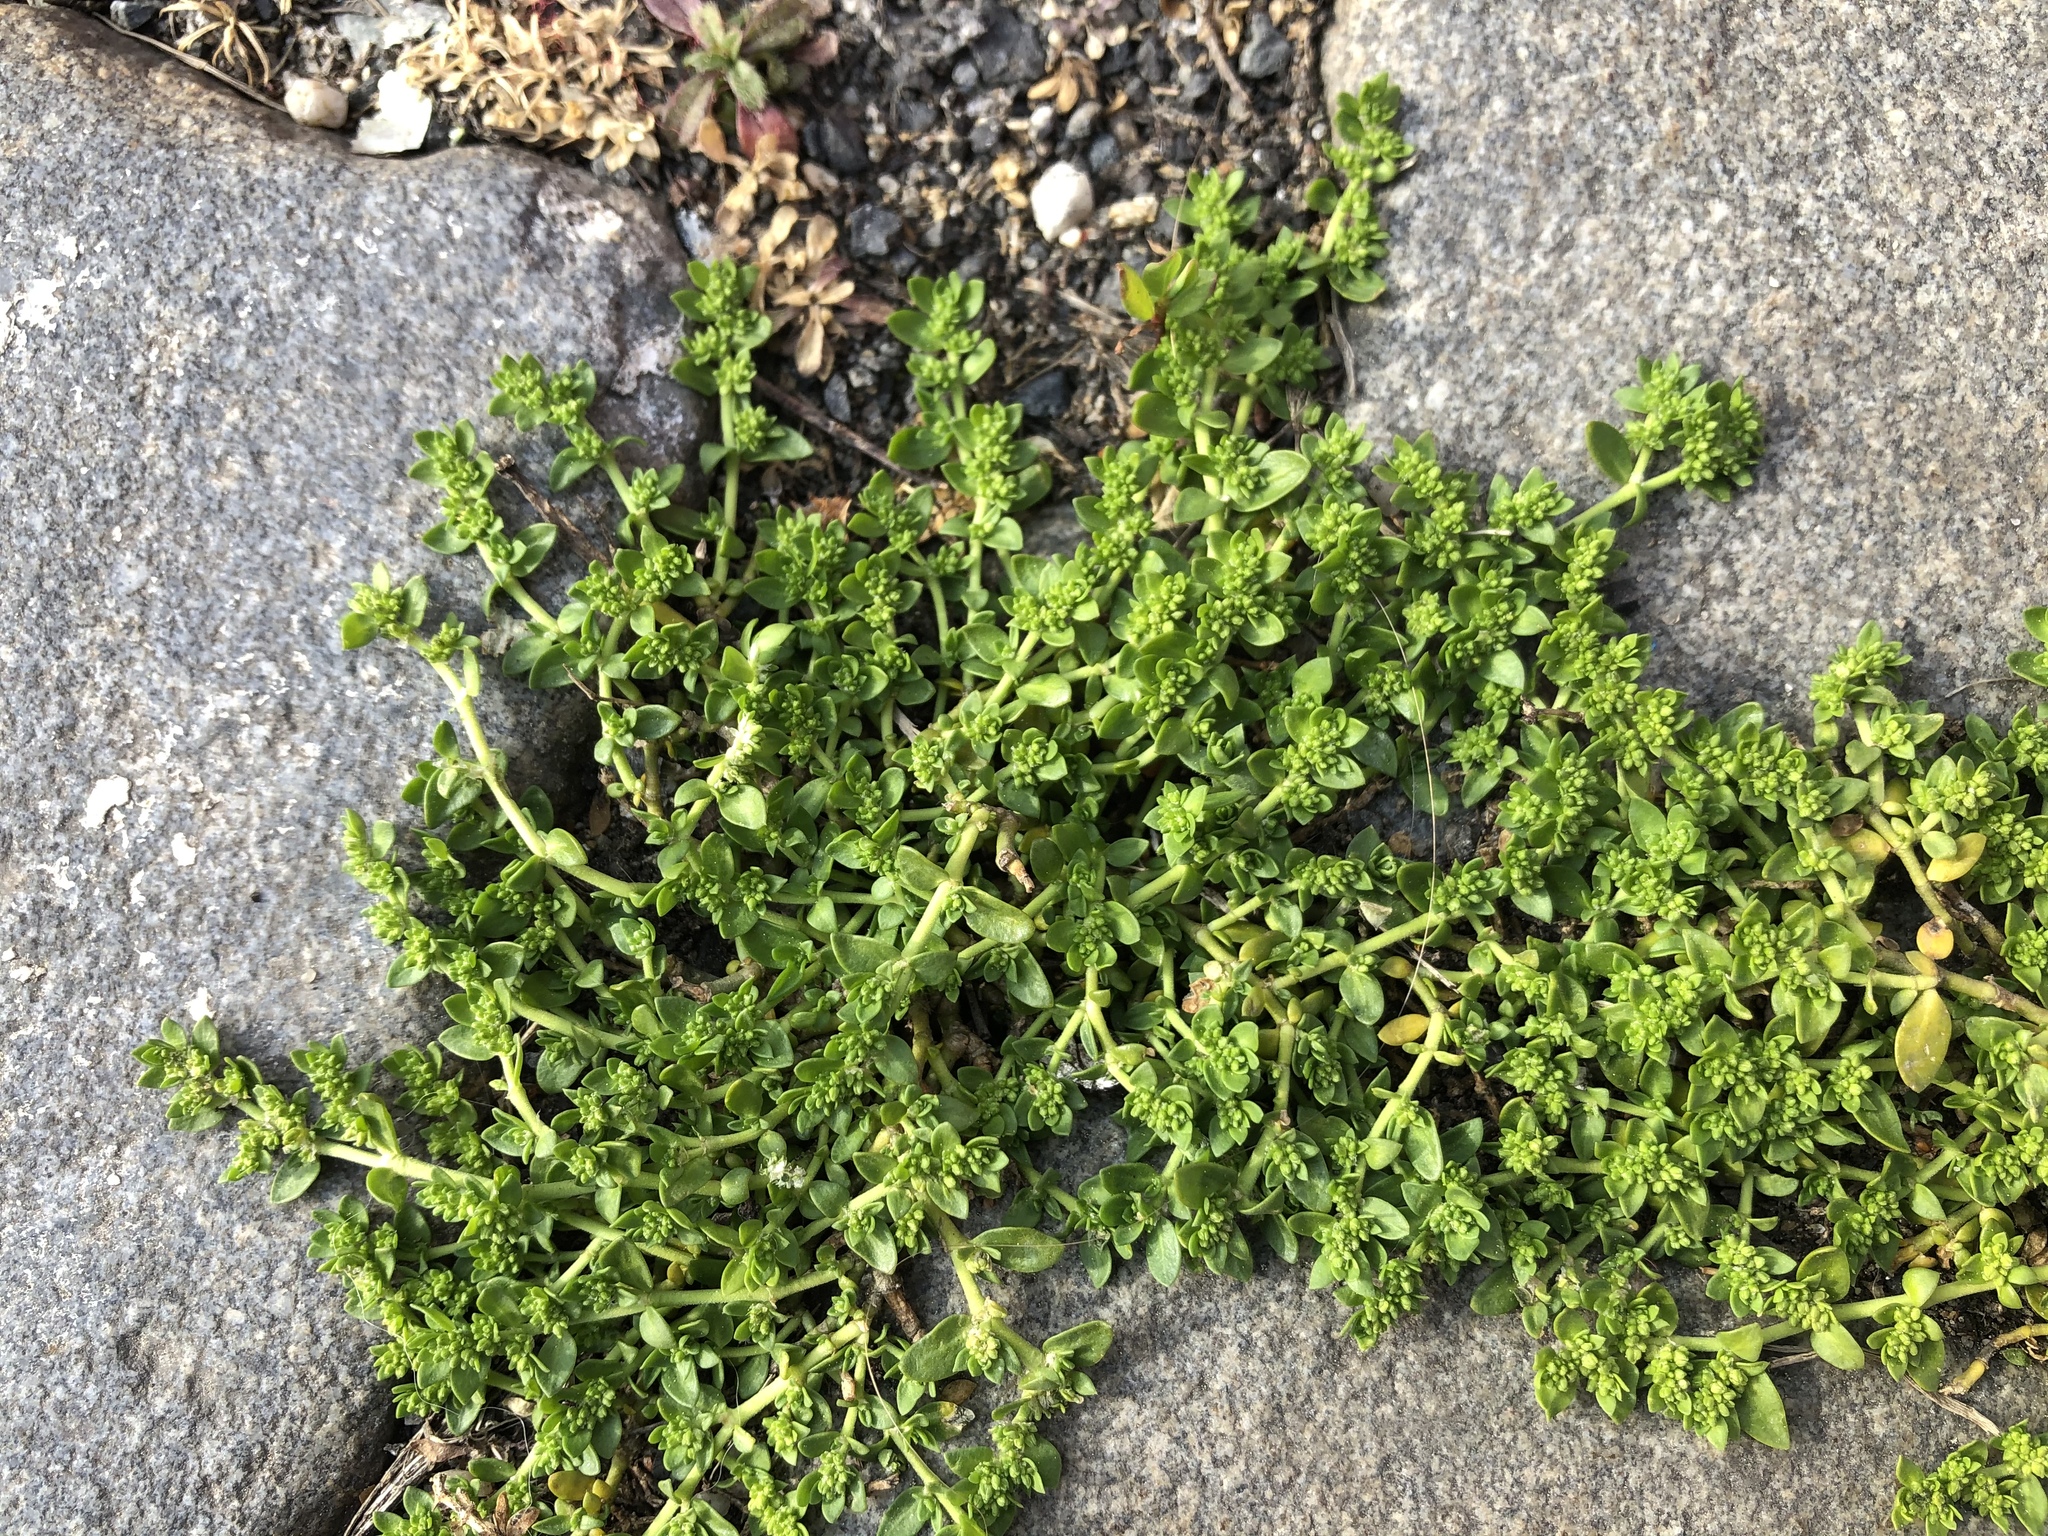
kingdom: Plantae
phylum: Tracheophyta
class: Magnoliopsida
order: Caryophyllales
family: Caryophyllaceae
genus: Herniaria
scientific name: Herniaria glabra
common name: Smooth rupturewort
